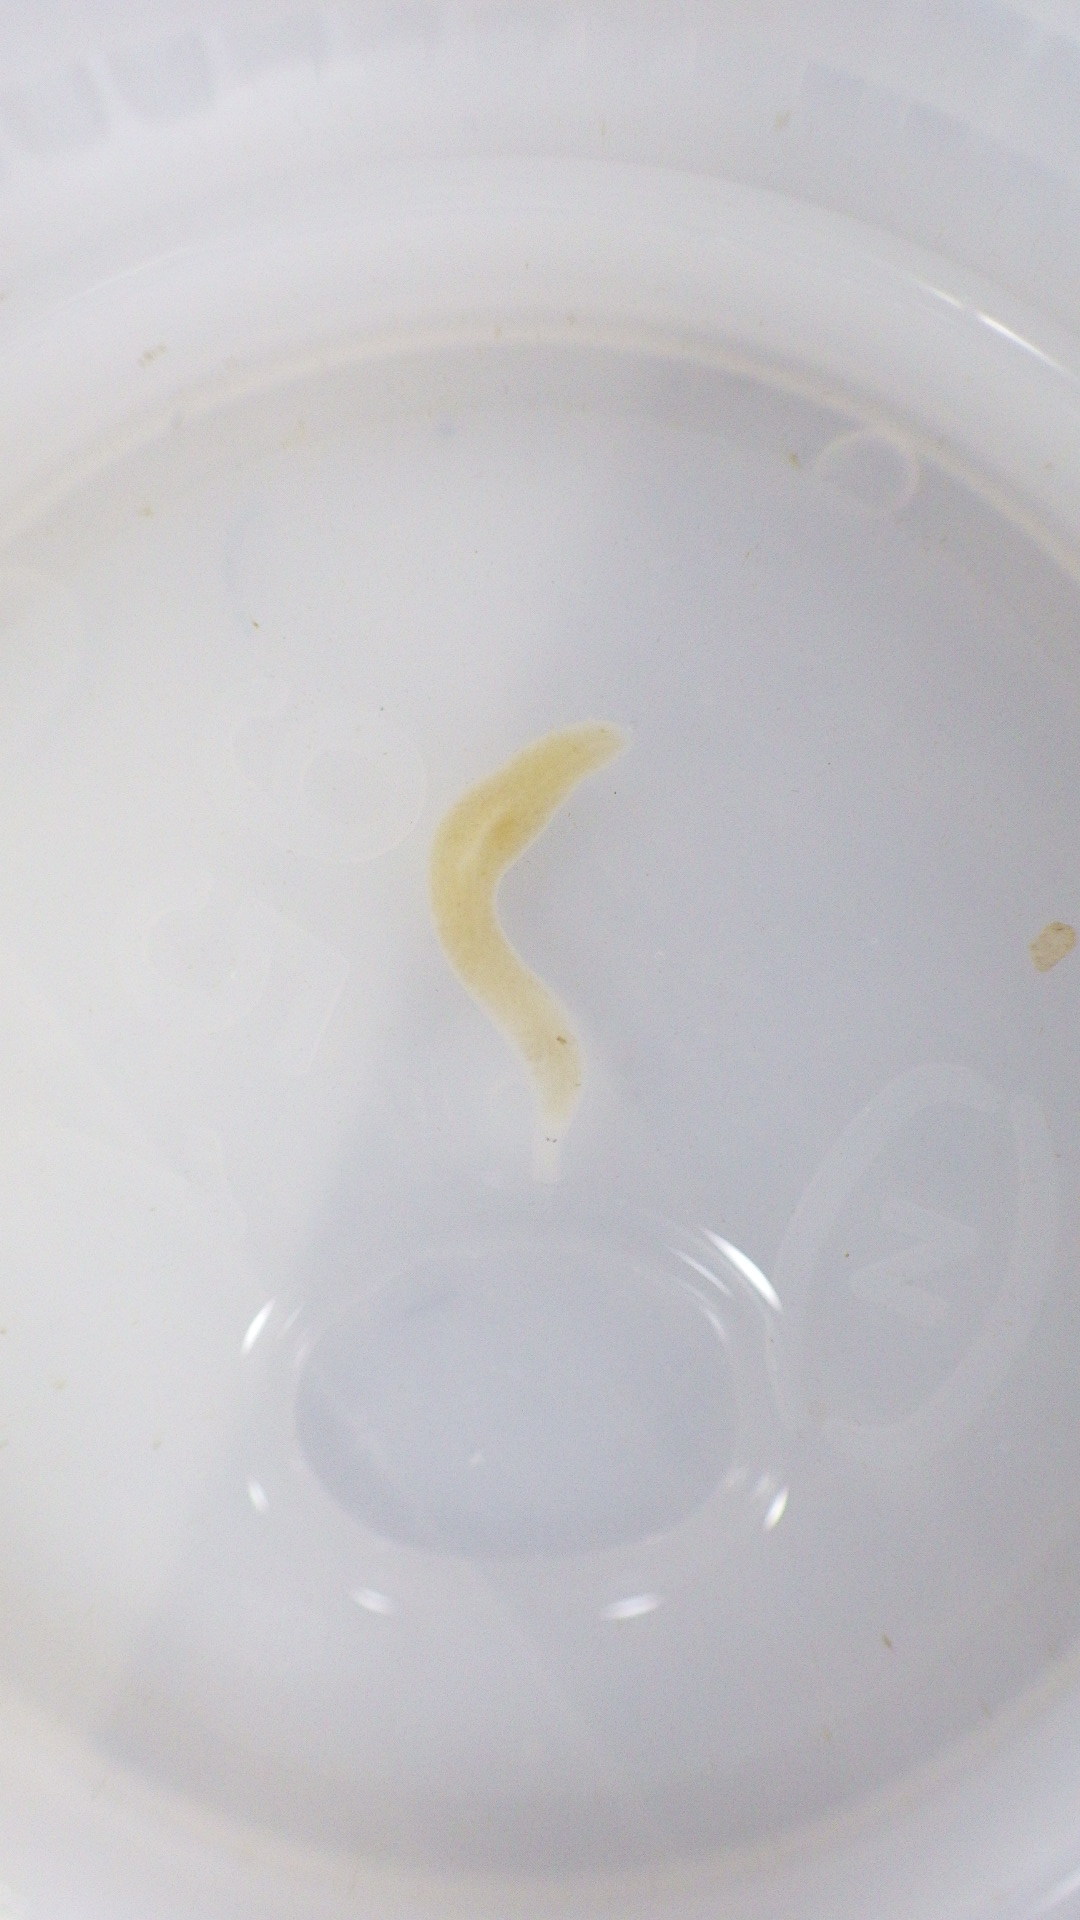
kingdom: Animalia
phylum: Platyhelminthes
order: Tricladida
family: Planariidae
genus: Phagocata
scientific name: Phagocata morgani
